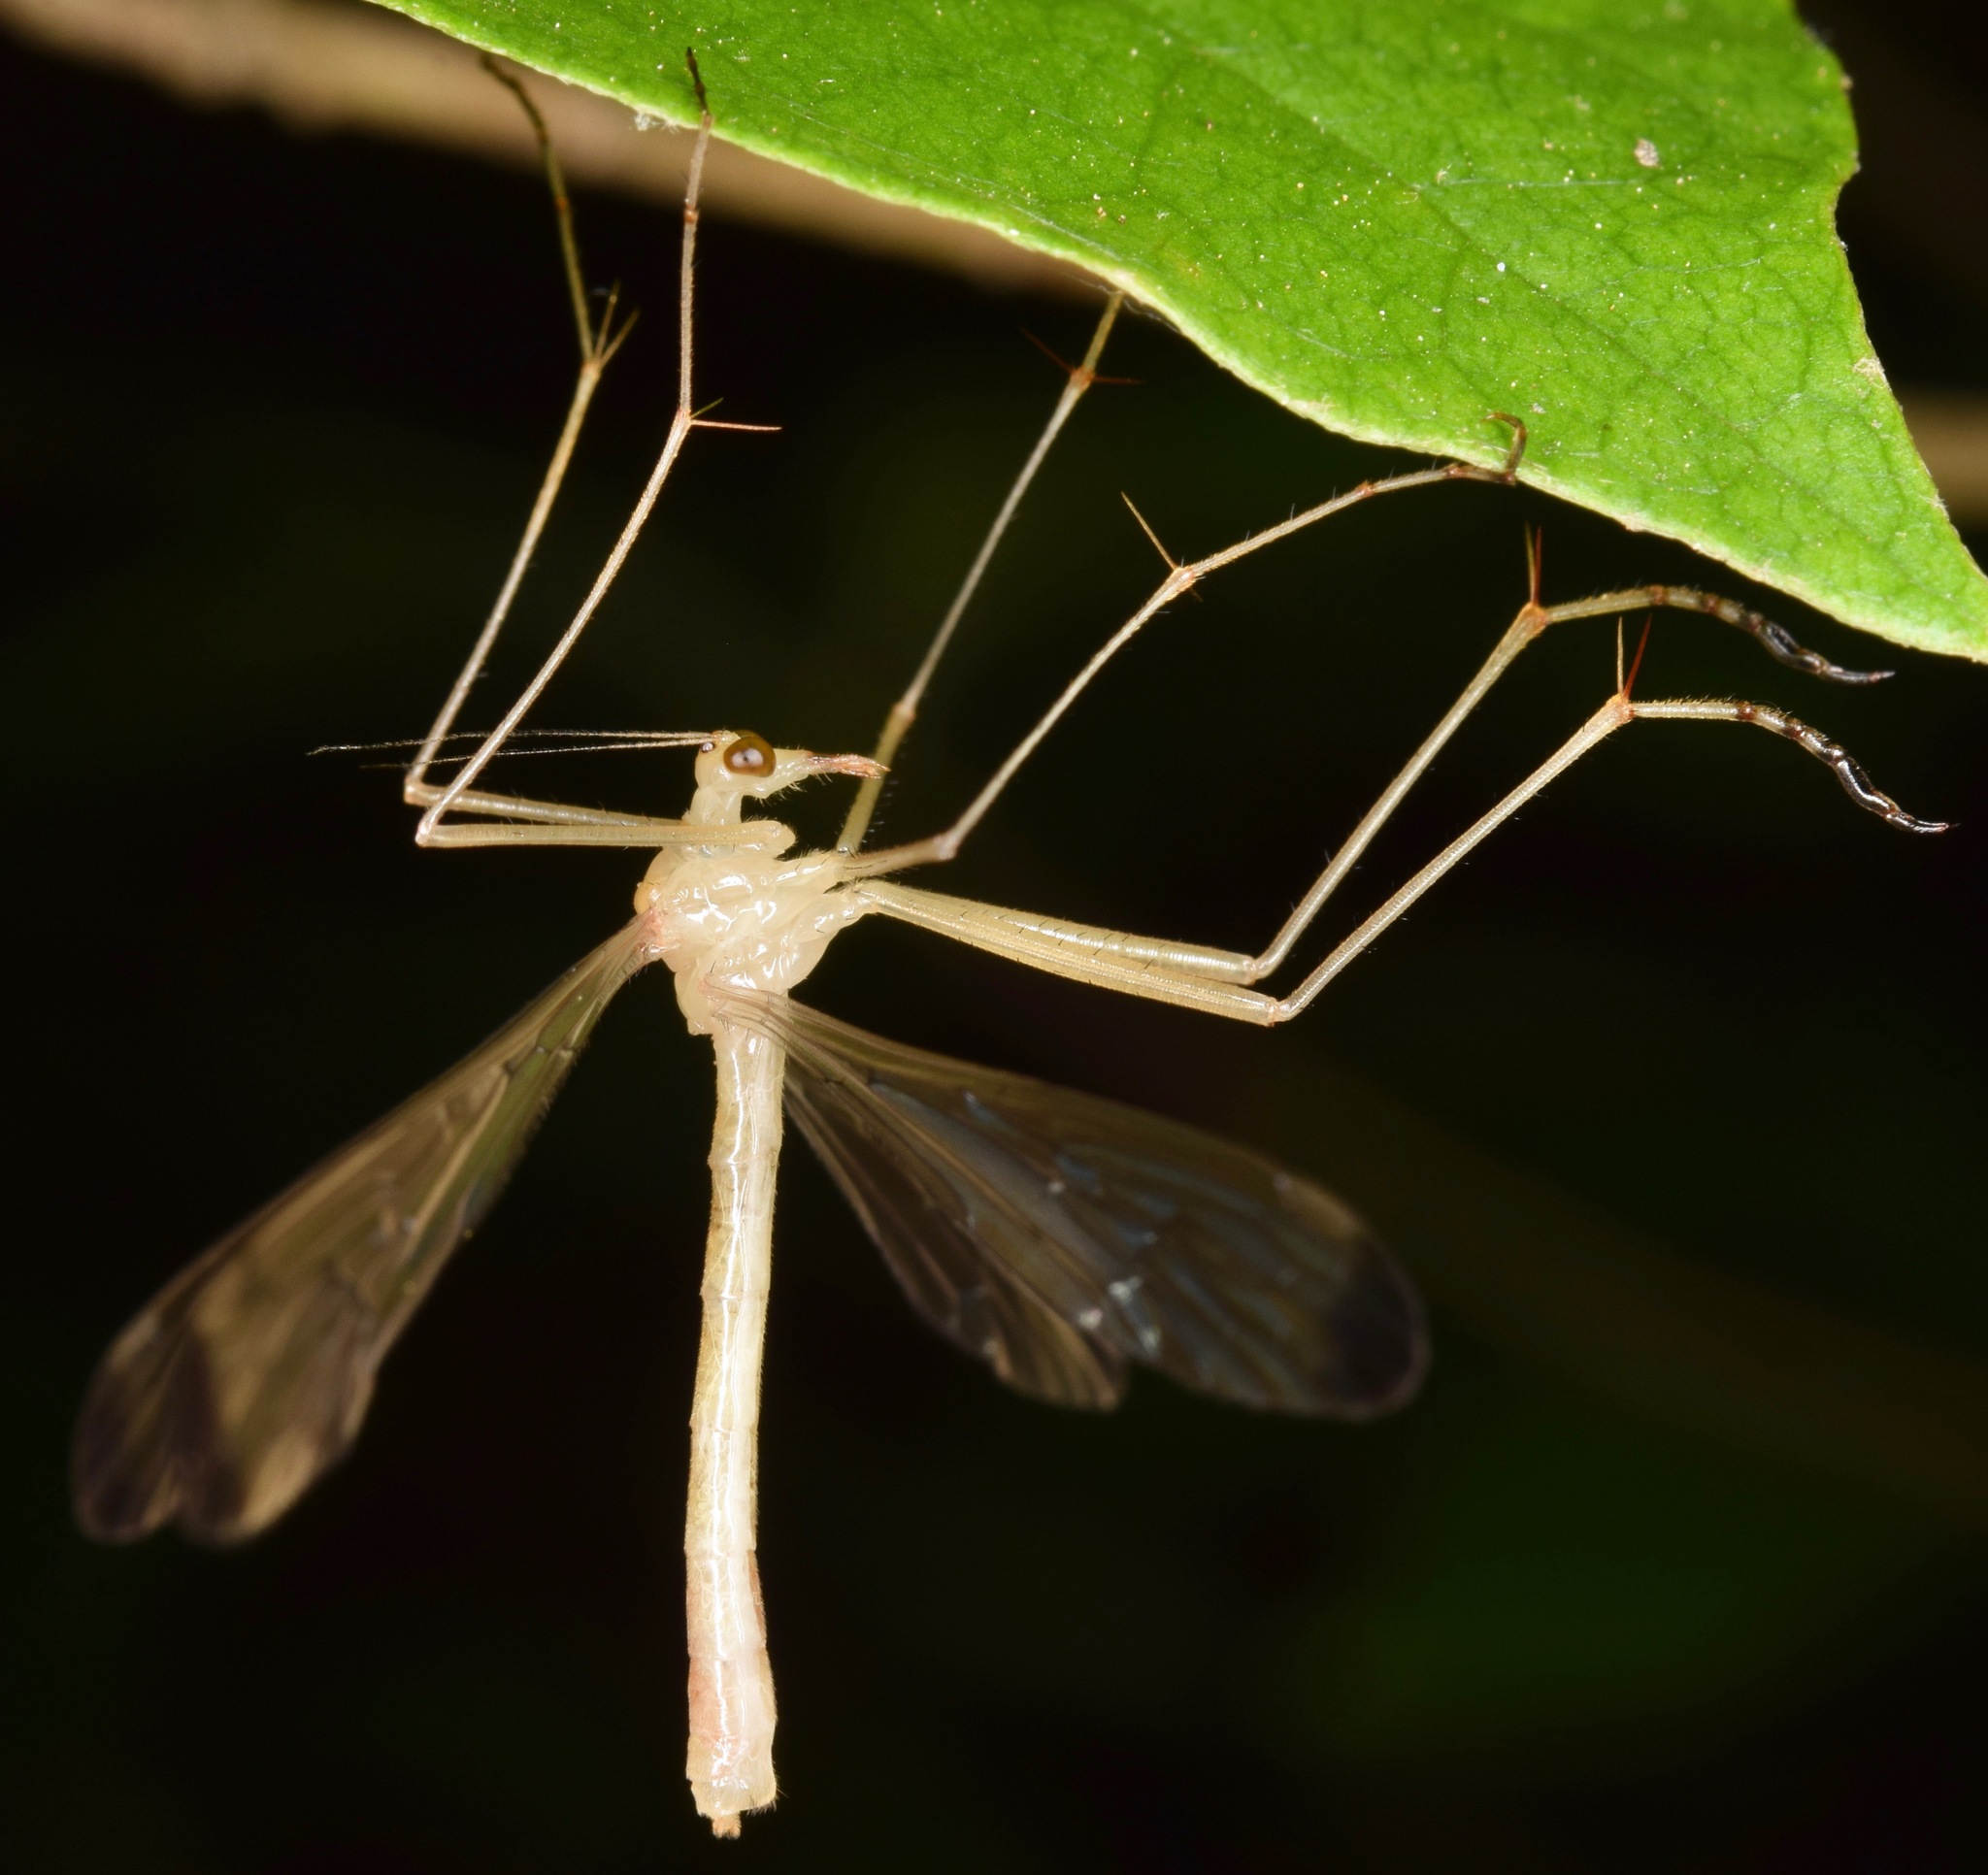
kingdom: Animalia
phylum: Arthropoda
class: Insecta
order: Mecoptera
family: Bittacidae
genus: Hylobittacus
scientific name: Hylobittacus apicalis
